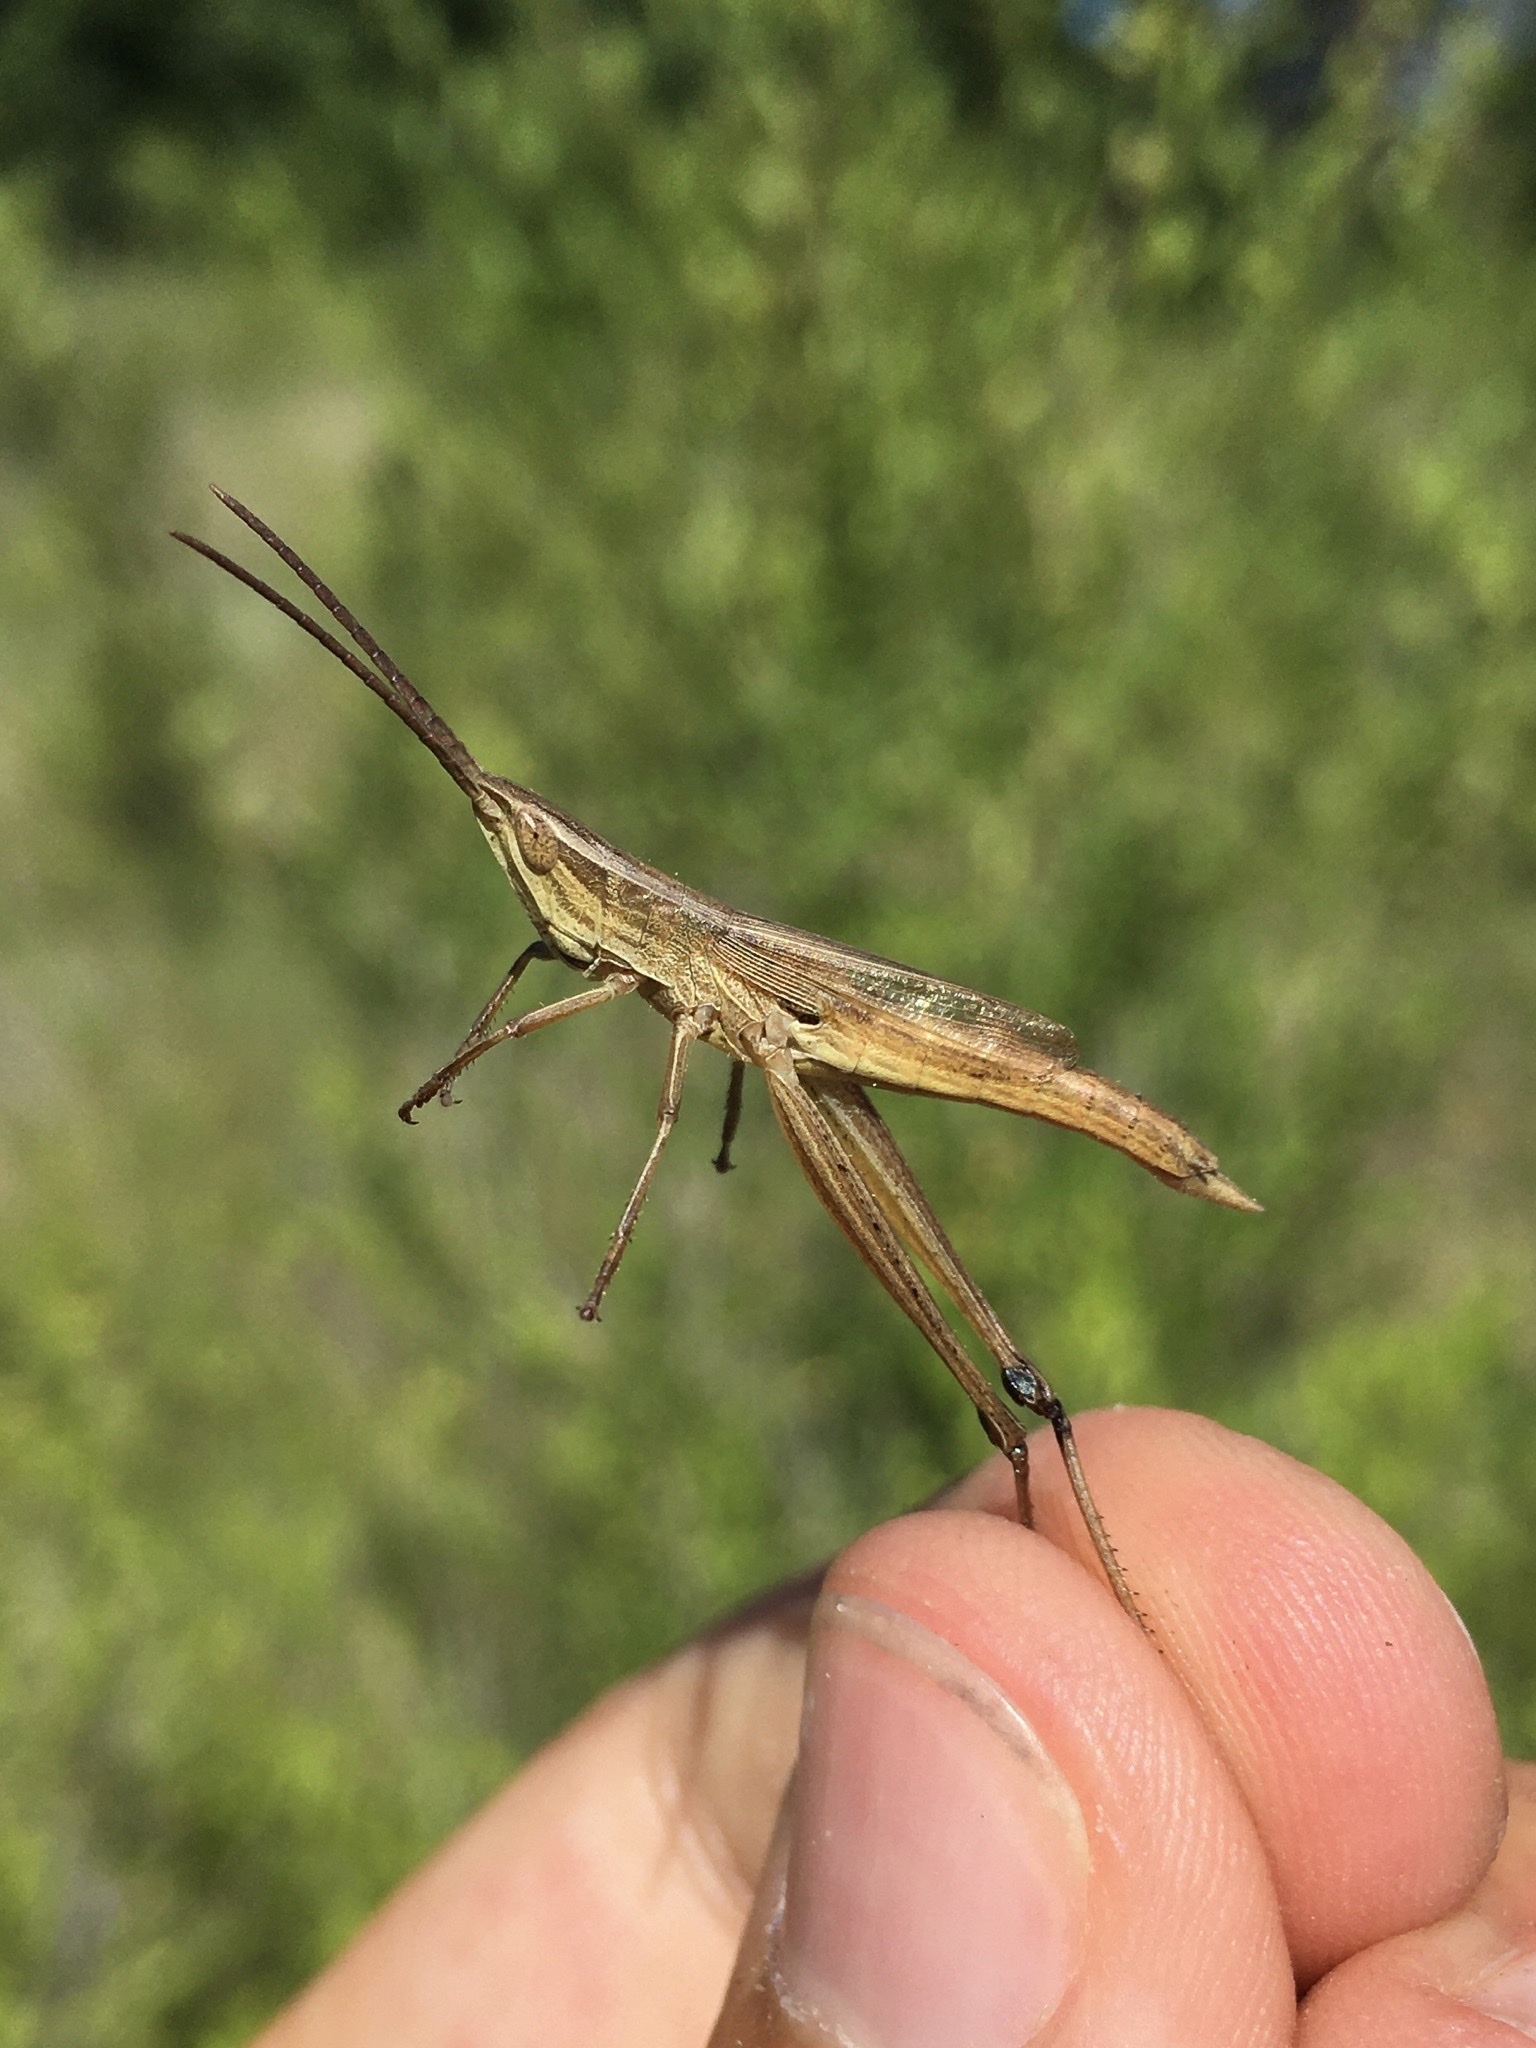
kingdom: Animalia
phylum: Arthropoda
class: Insecta
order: Orthoptera
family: Acrididae
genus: Pseudopomala
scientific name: Pseudopomala brachyptera
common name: Bunchgrass grasshopper
